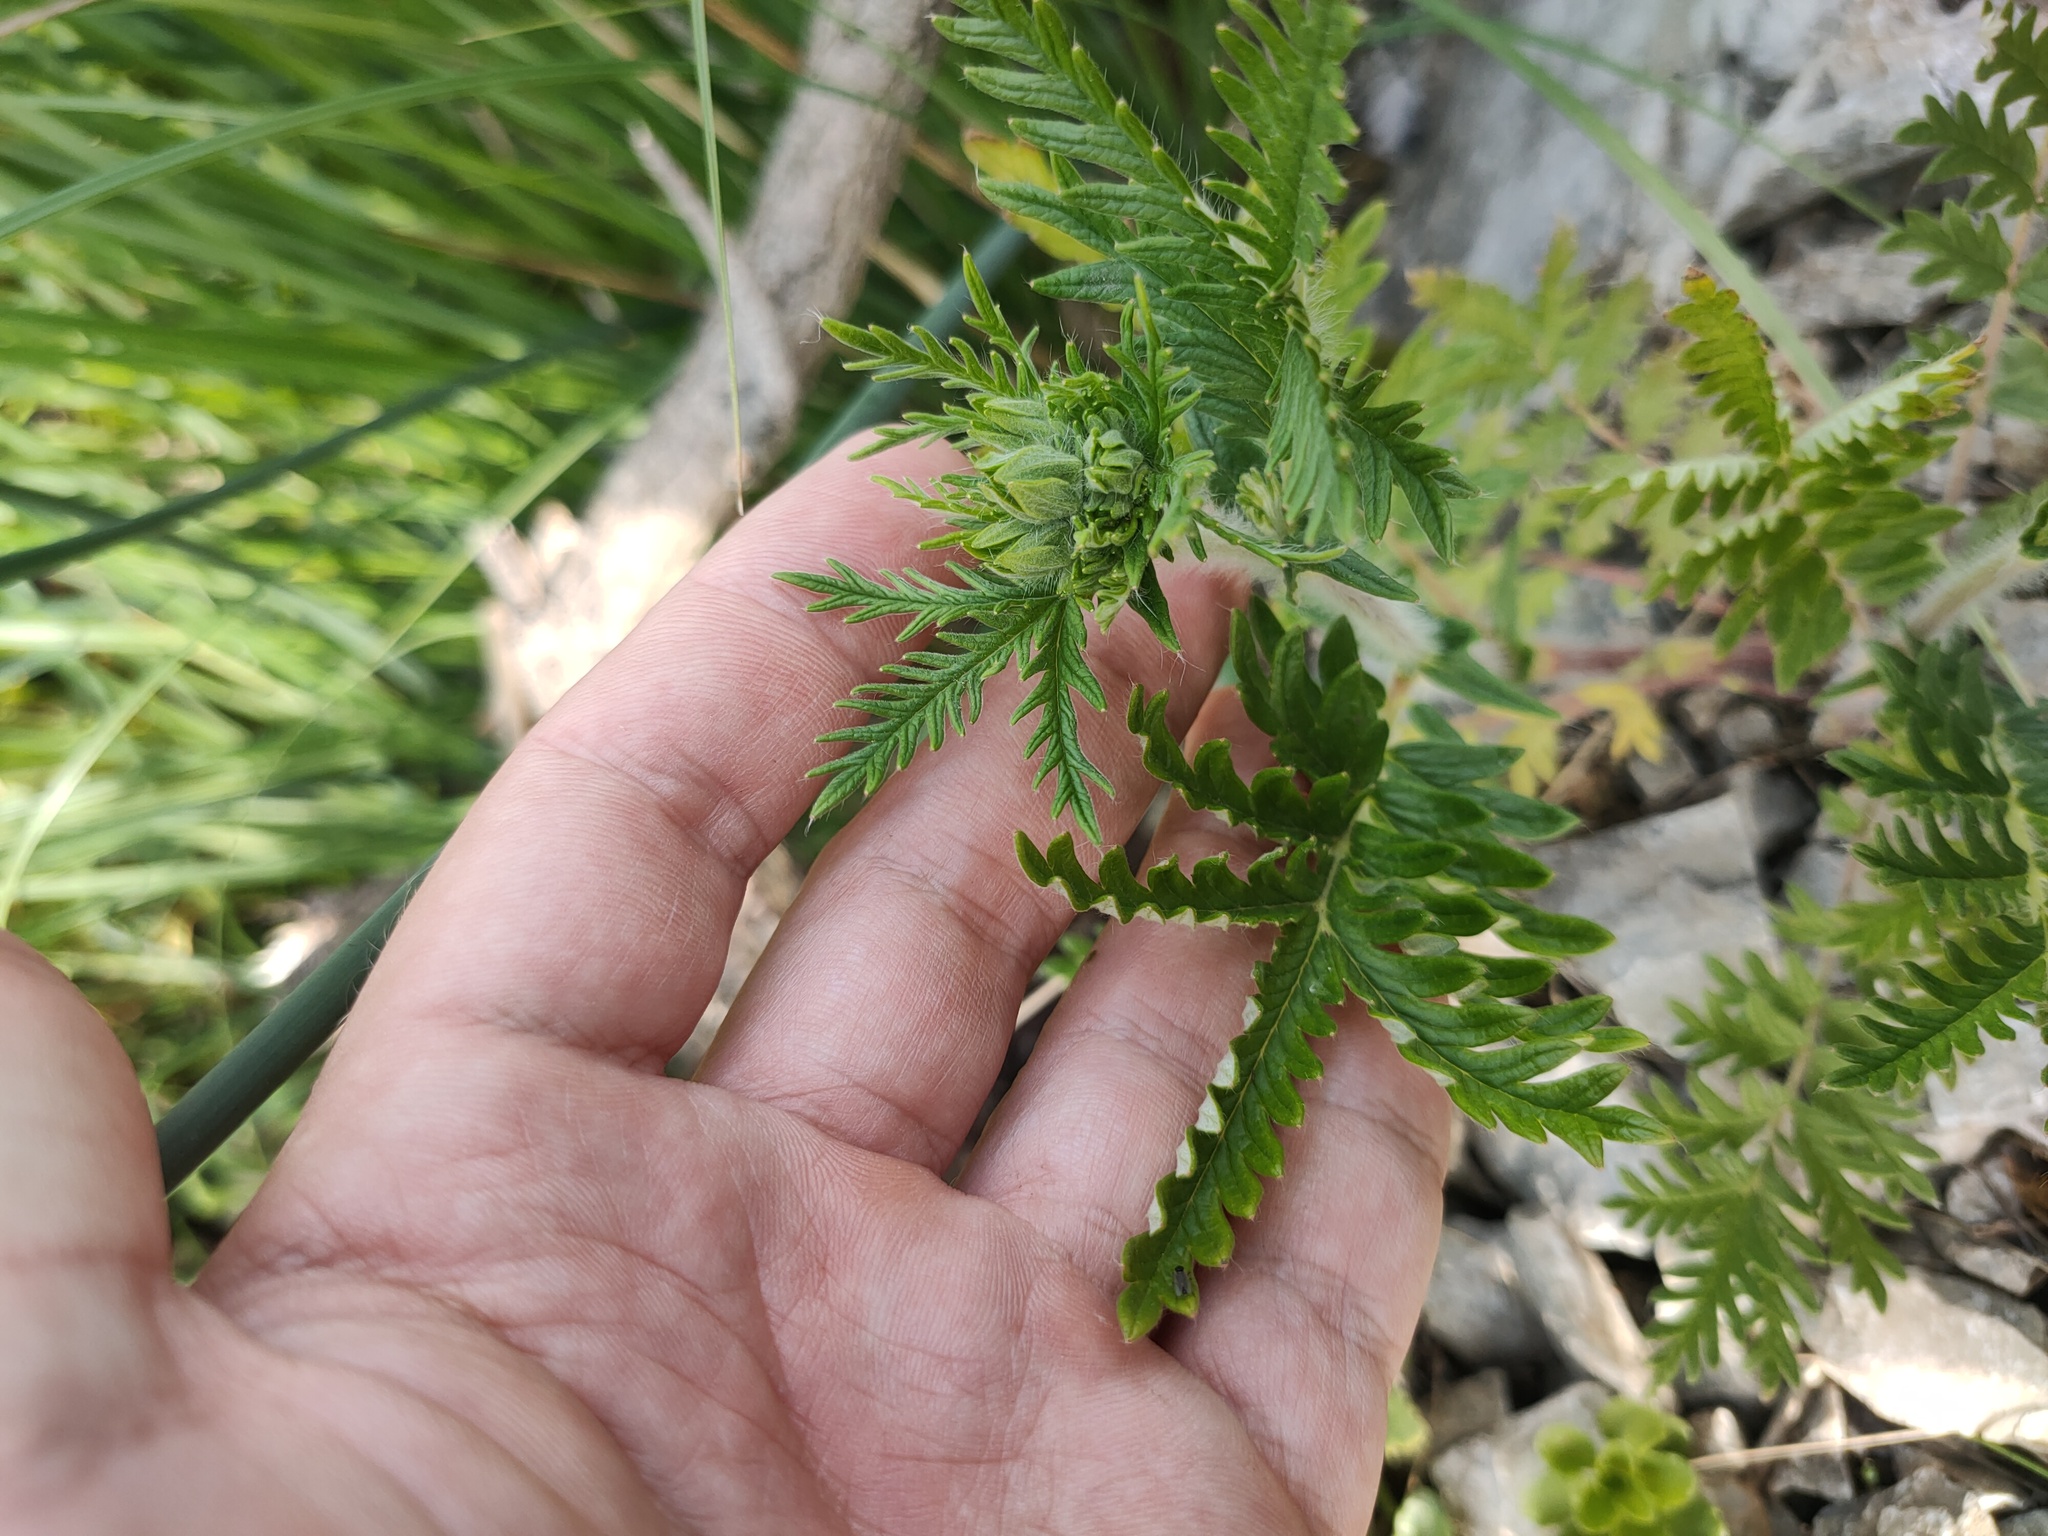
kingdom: Plantae
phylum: Tracheophyta
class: Magnoliopsida
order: Asterales
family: Asteraceae
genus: Tanacetum
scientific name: Tanacetum vulgare
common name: Common tansy
